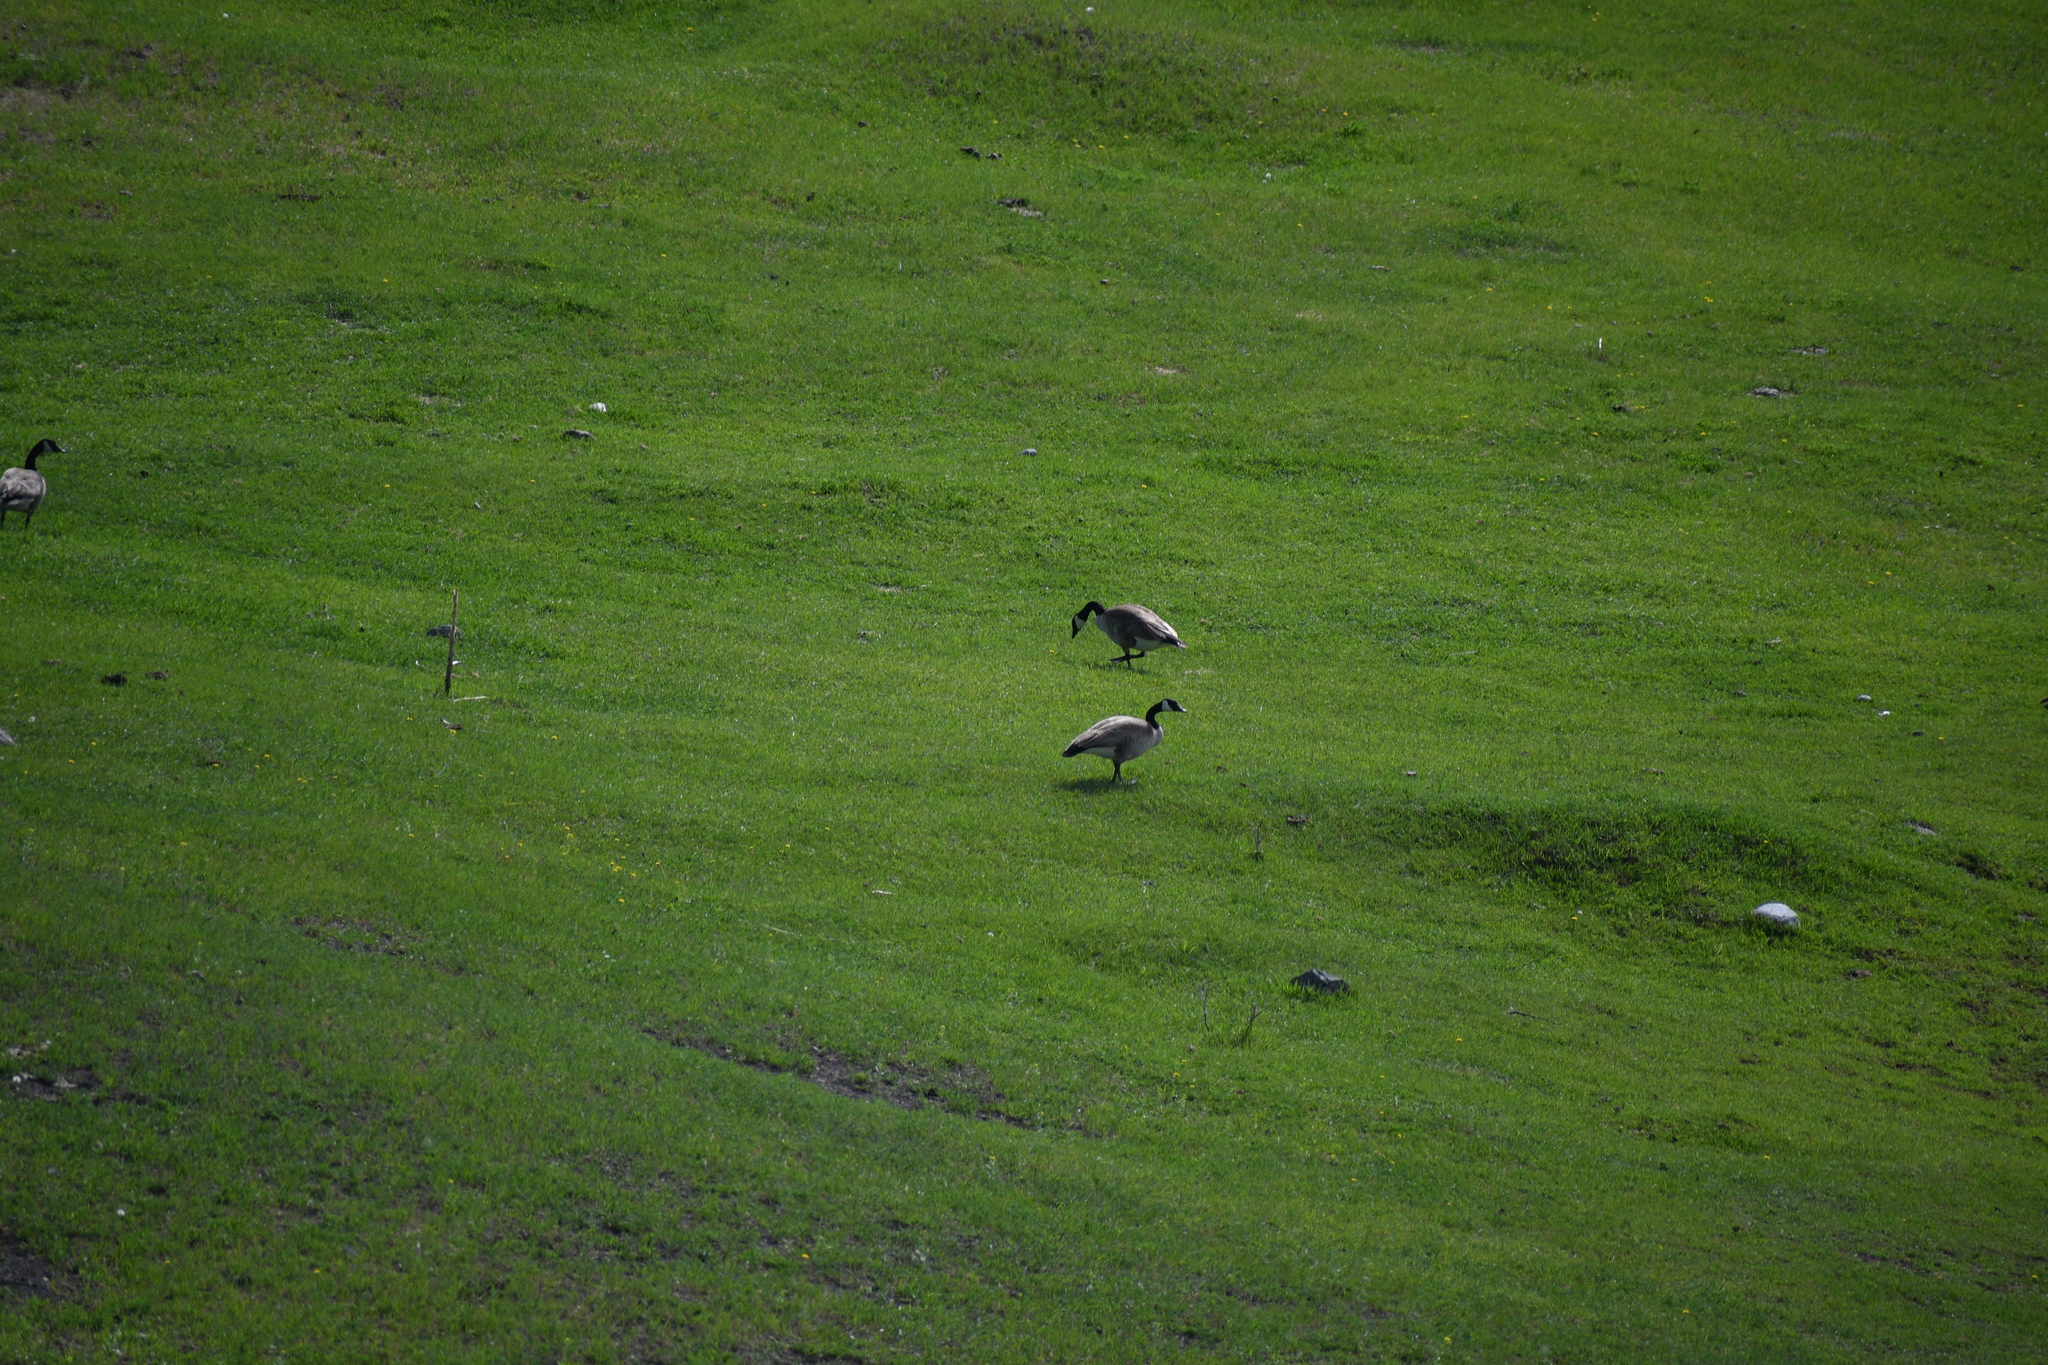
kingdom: Animalia
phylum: Chordata
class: Aves
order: Anseriformes
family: Anatidae
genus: Branta
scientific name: Branta canadensis
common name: Canada goose
